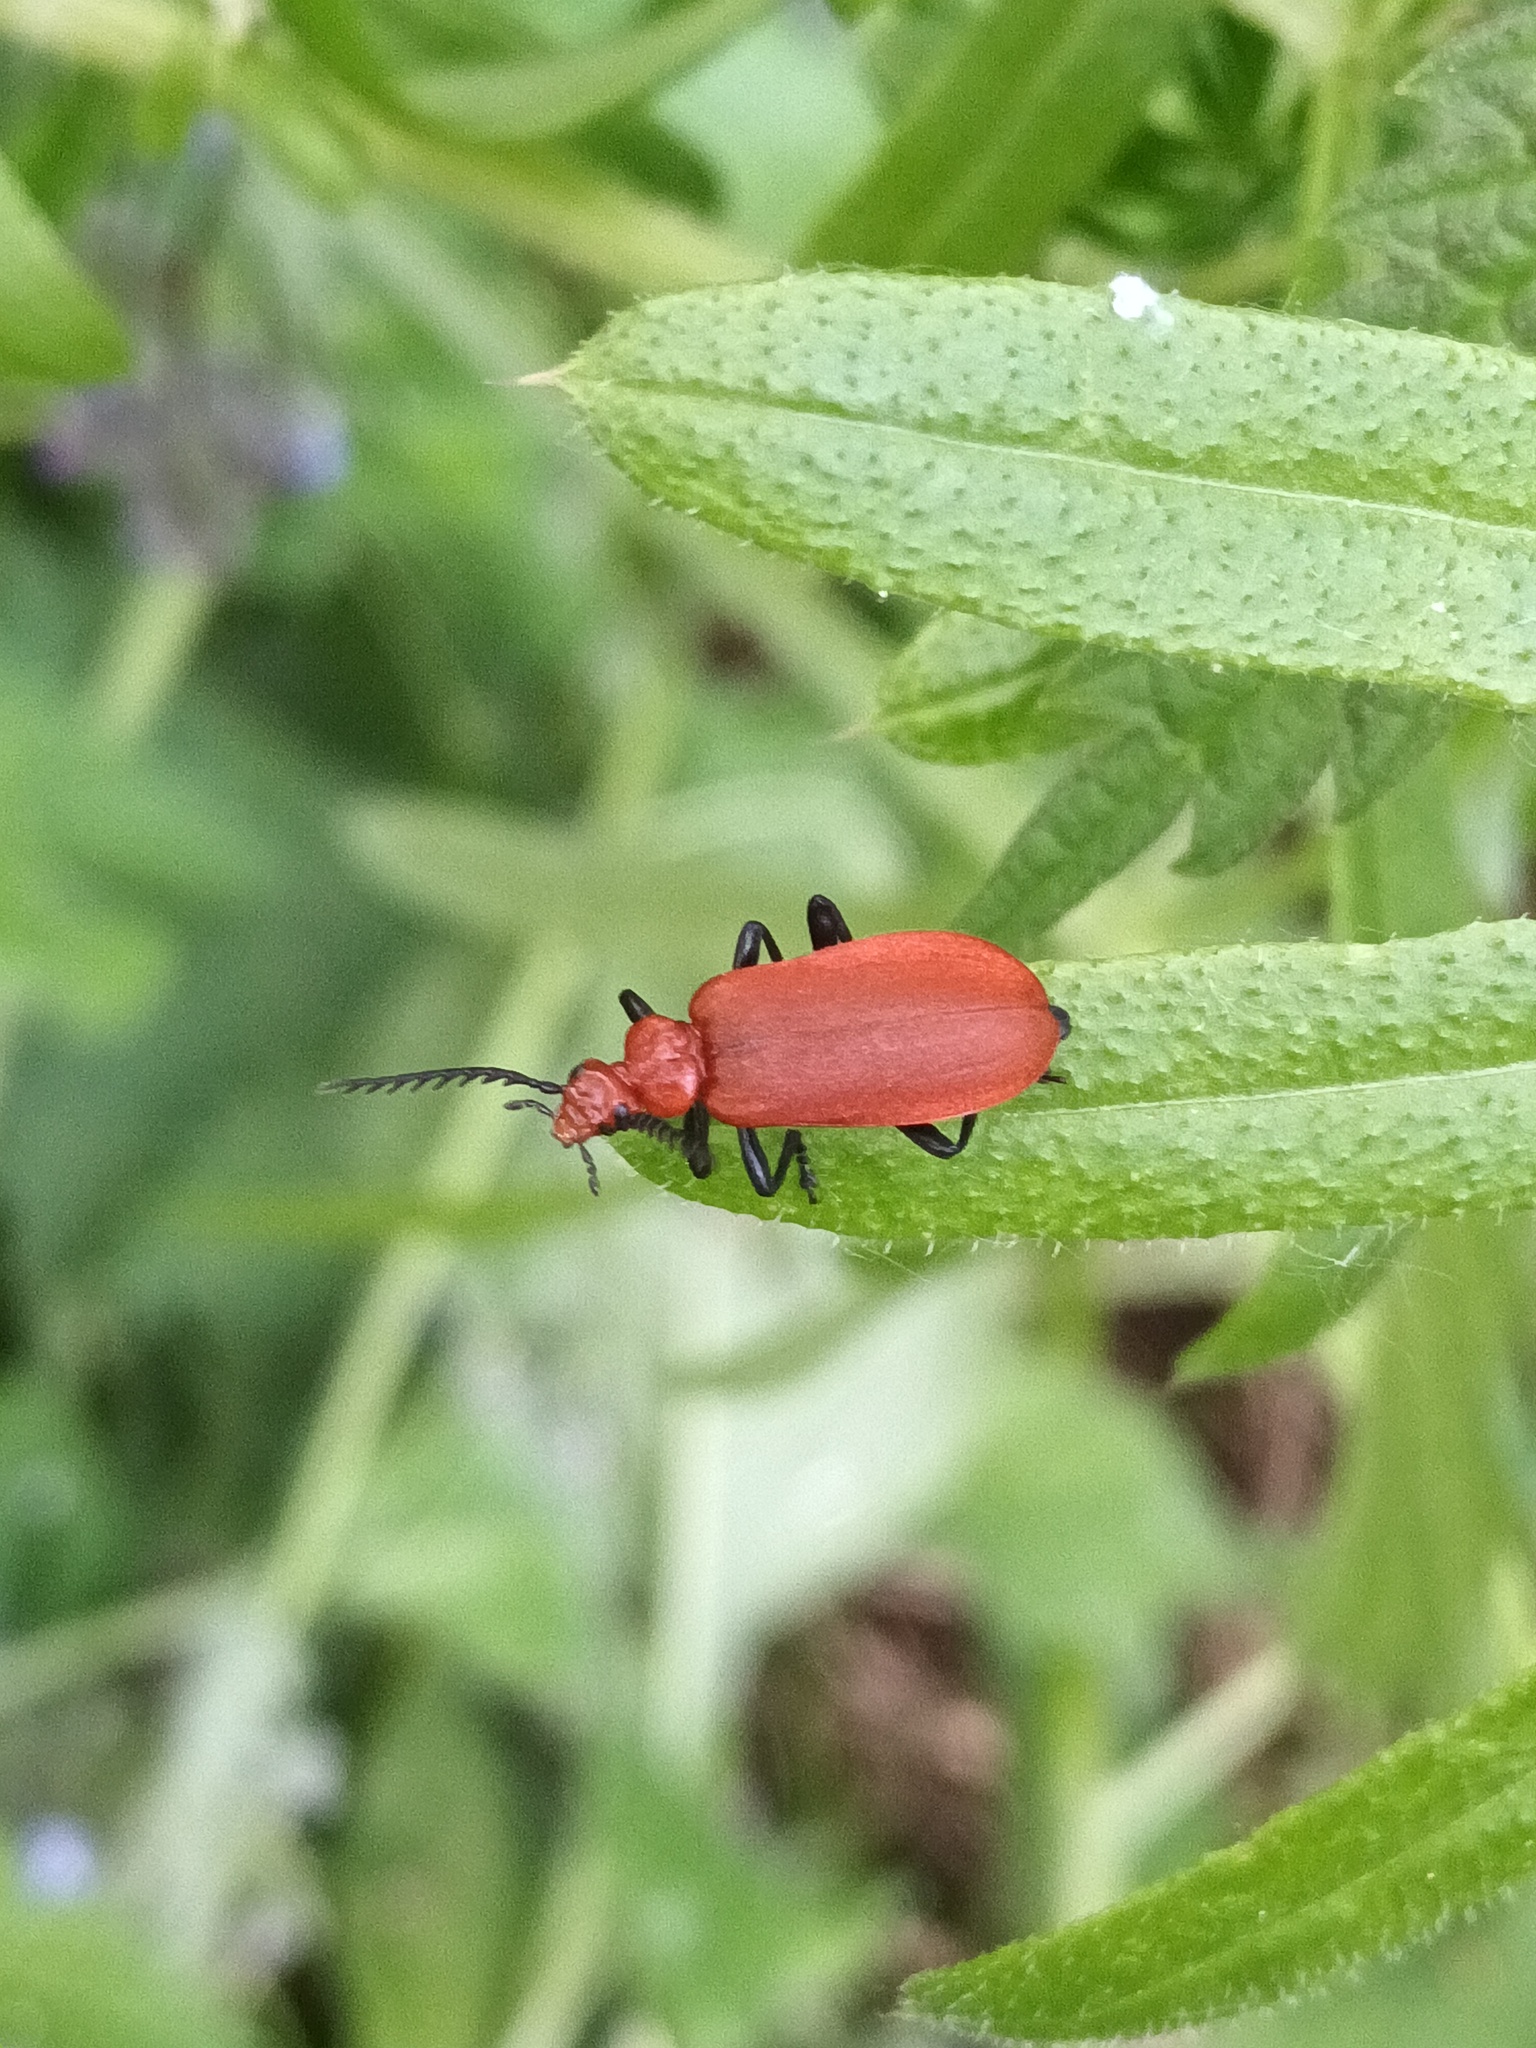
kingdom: Animalia
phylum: Arthropoda
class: Insecta
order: Coleoptera
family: Pyrochroidae
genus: Pyrochroa
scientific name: Pyrochroa serraticornis
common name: Red-headed cardinal beetle
